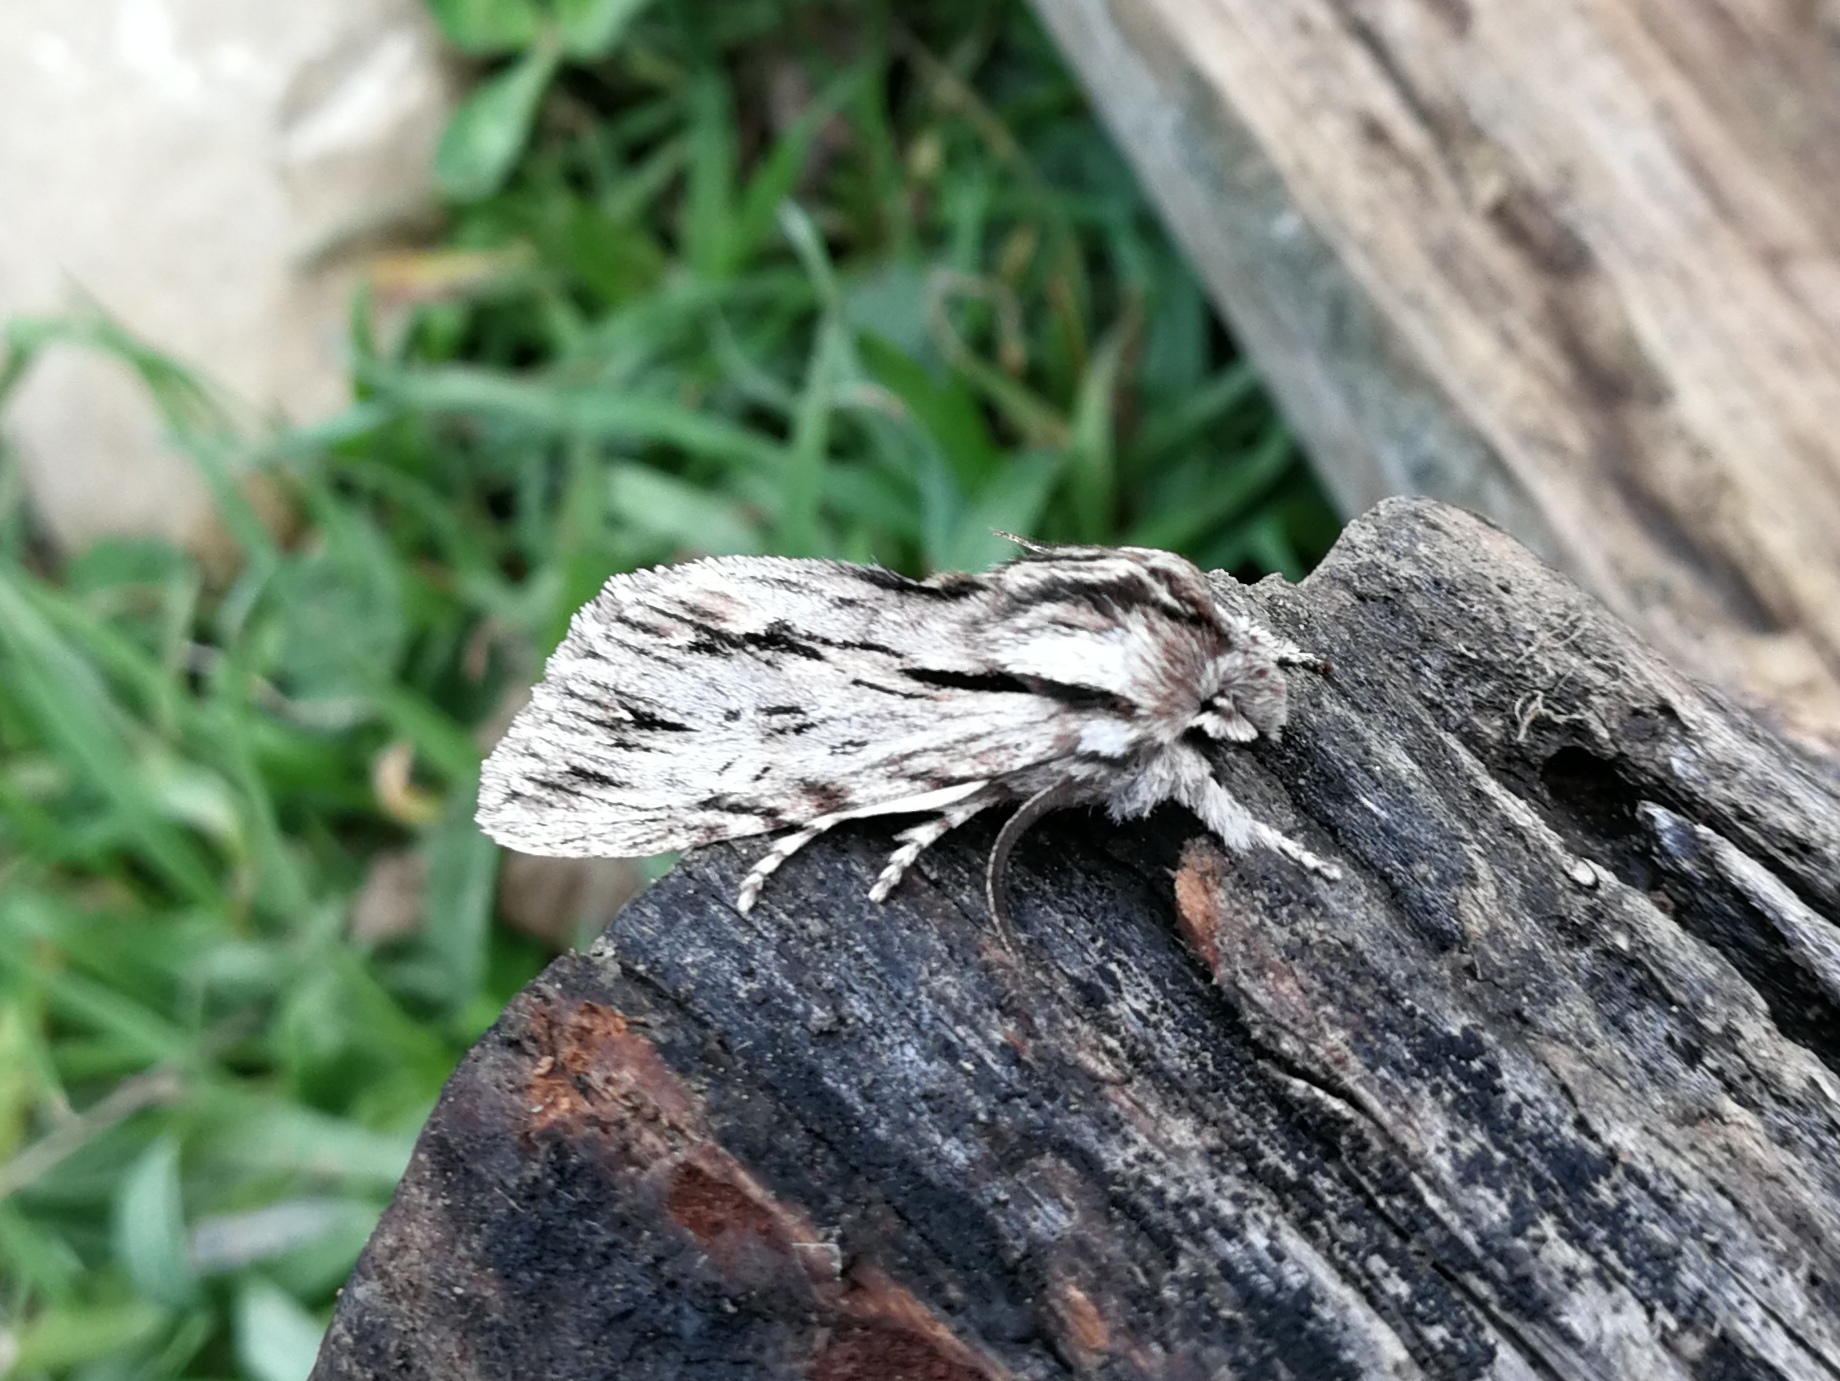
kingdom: Animalia
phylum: Arthropoda
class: Insecta
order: Lepidoptera
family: Noctuidae
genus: Asteroscopus
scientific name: Asteroscopus sphinx
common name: The sprawler
